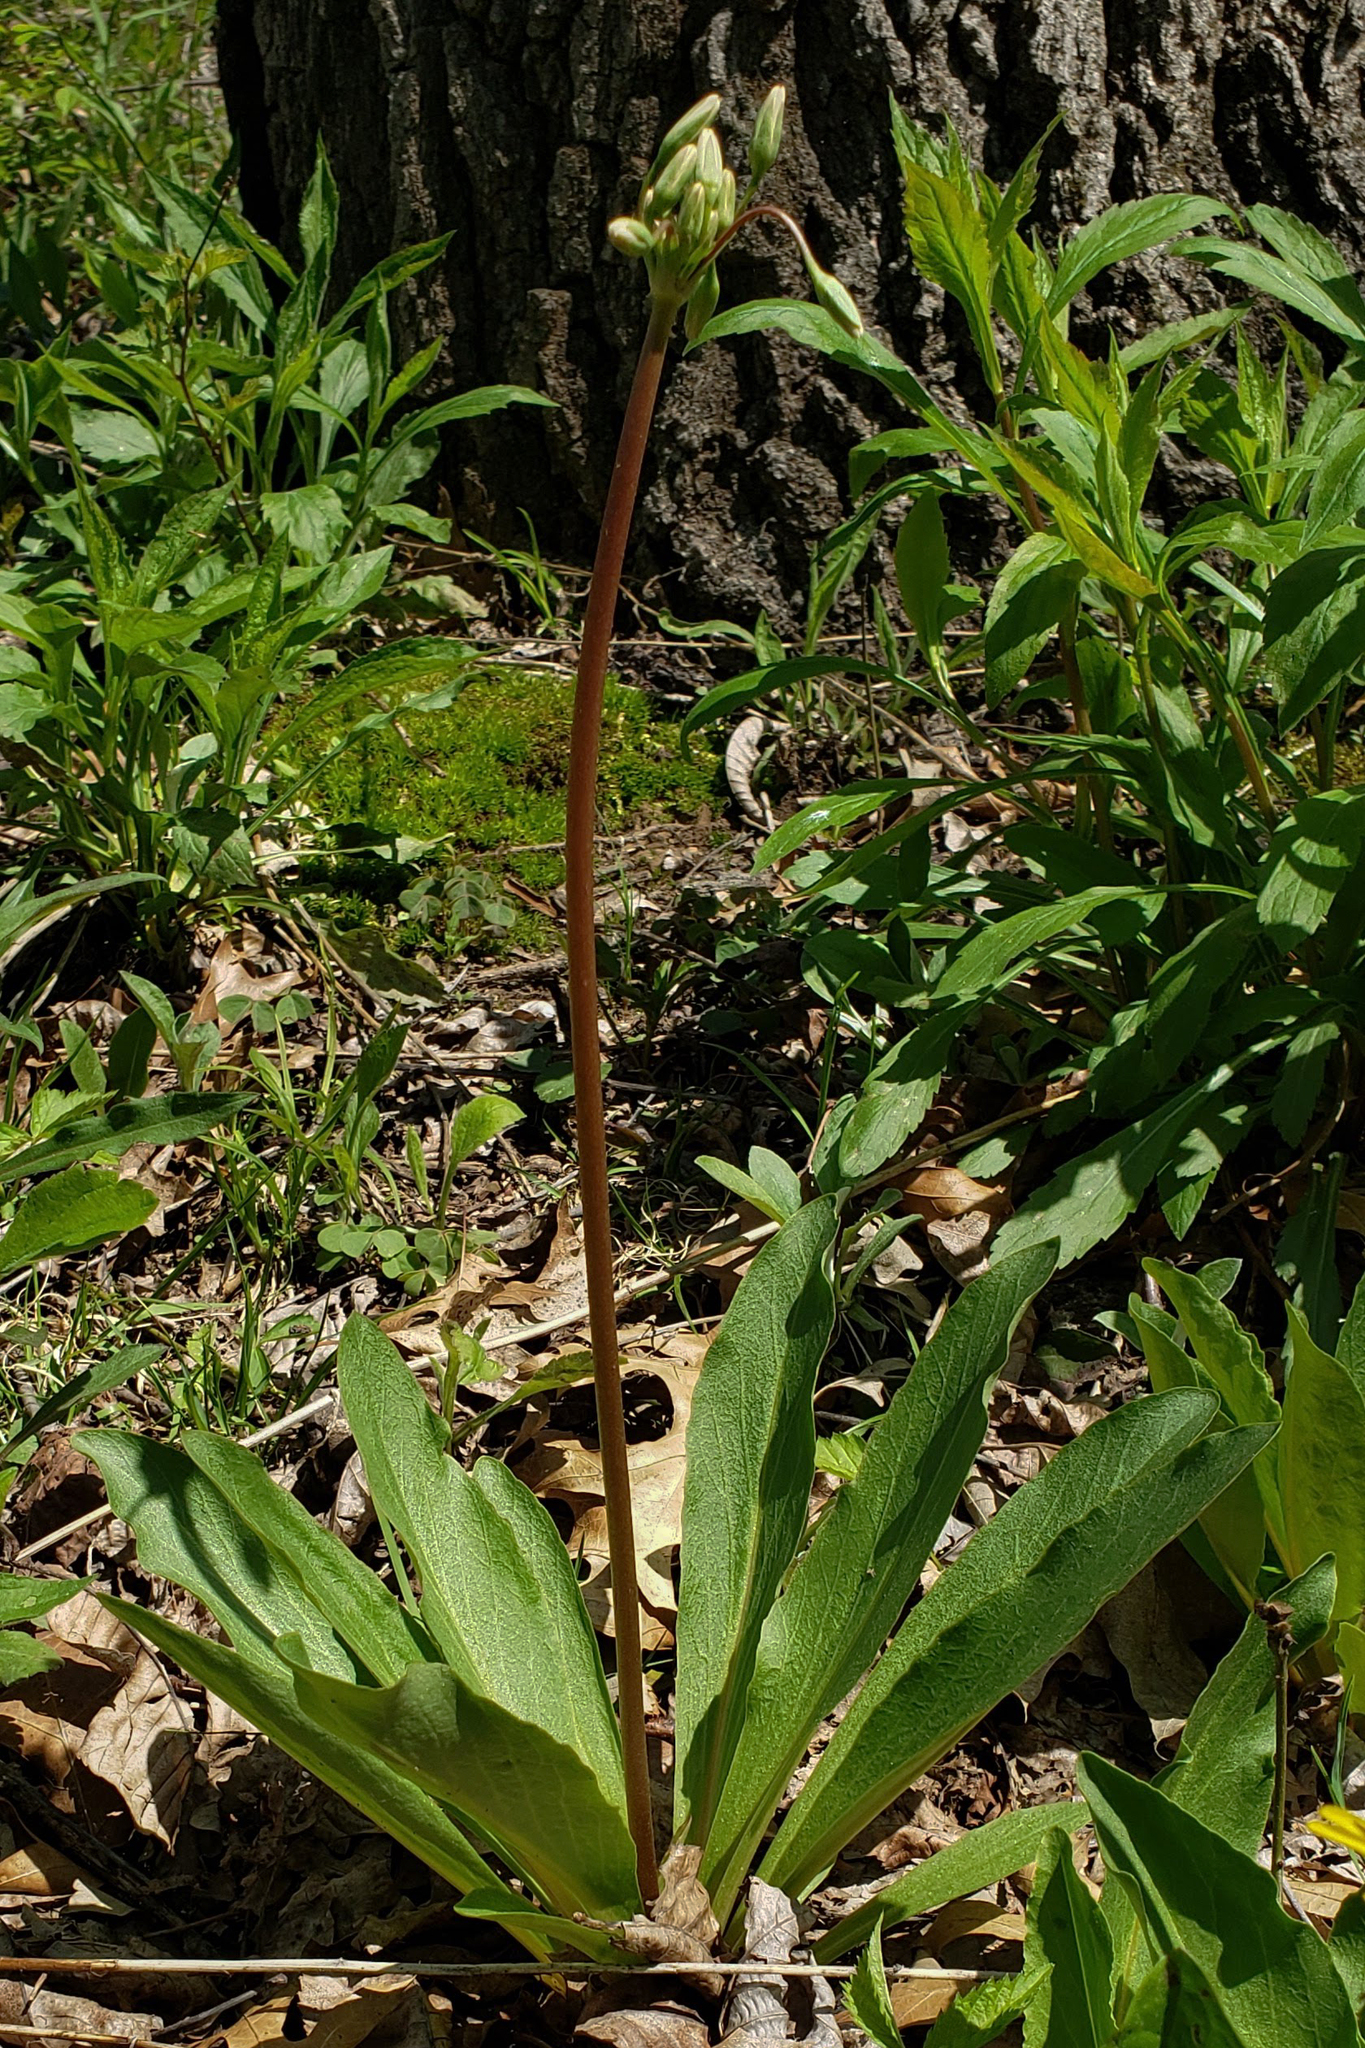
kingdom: Plantae
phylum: Tracheophyta
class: Magnoliopsida
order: Ericales
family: Primulaceae
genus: Dodecatheon
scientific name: Dodecatheon meadia
